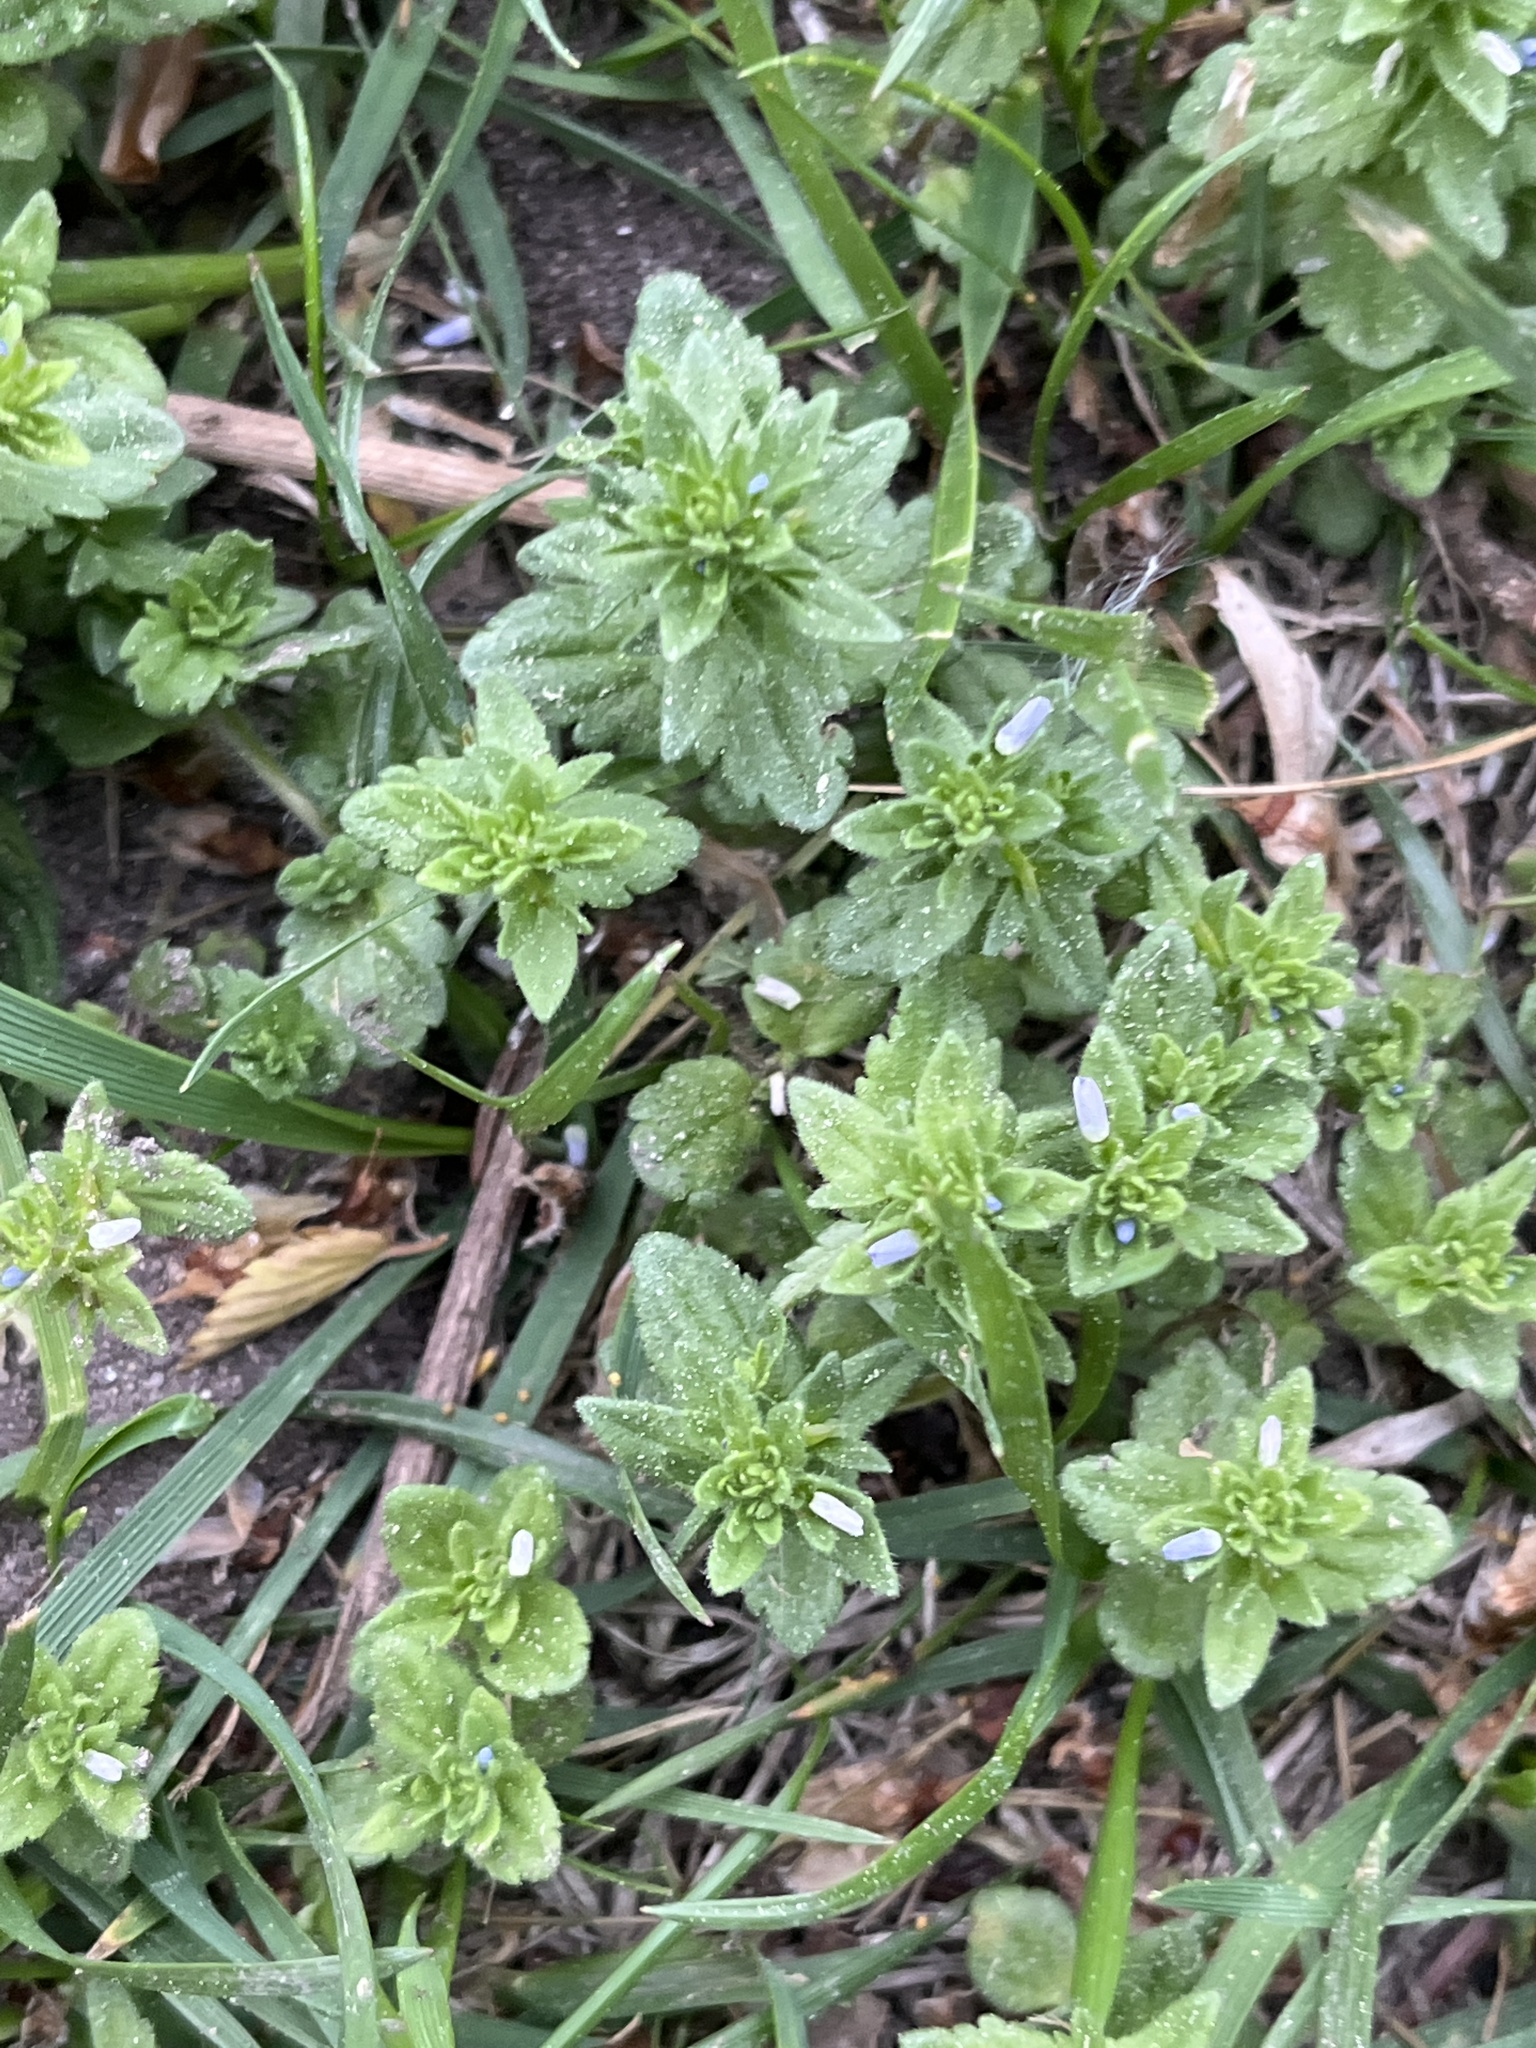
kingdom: Plantae
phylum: Tracheophyta
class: Magnoliopsida
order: Lamiales
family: Plantaginaceae
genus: Veronica
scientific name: Veronica arvensis
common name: Corn speedwell
